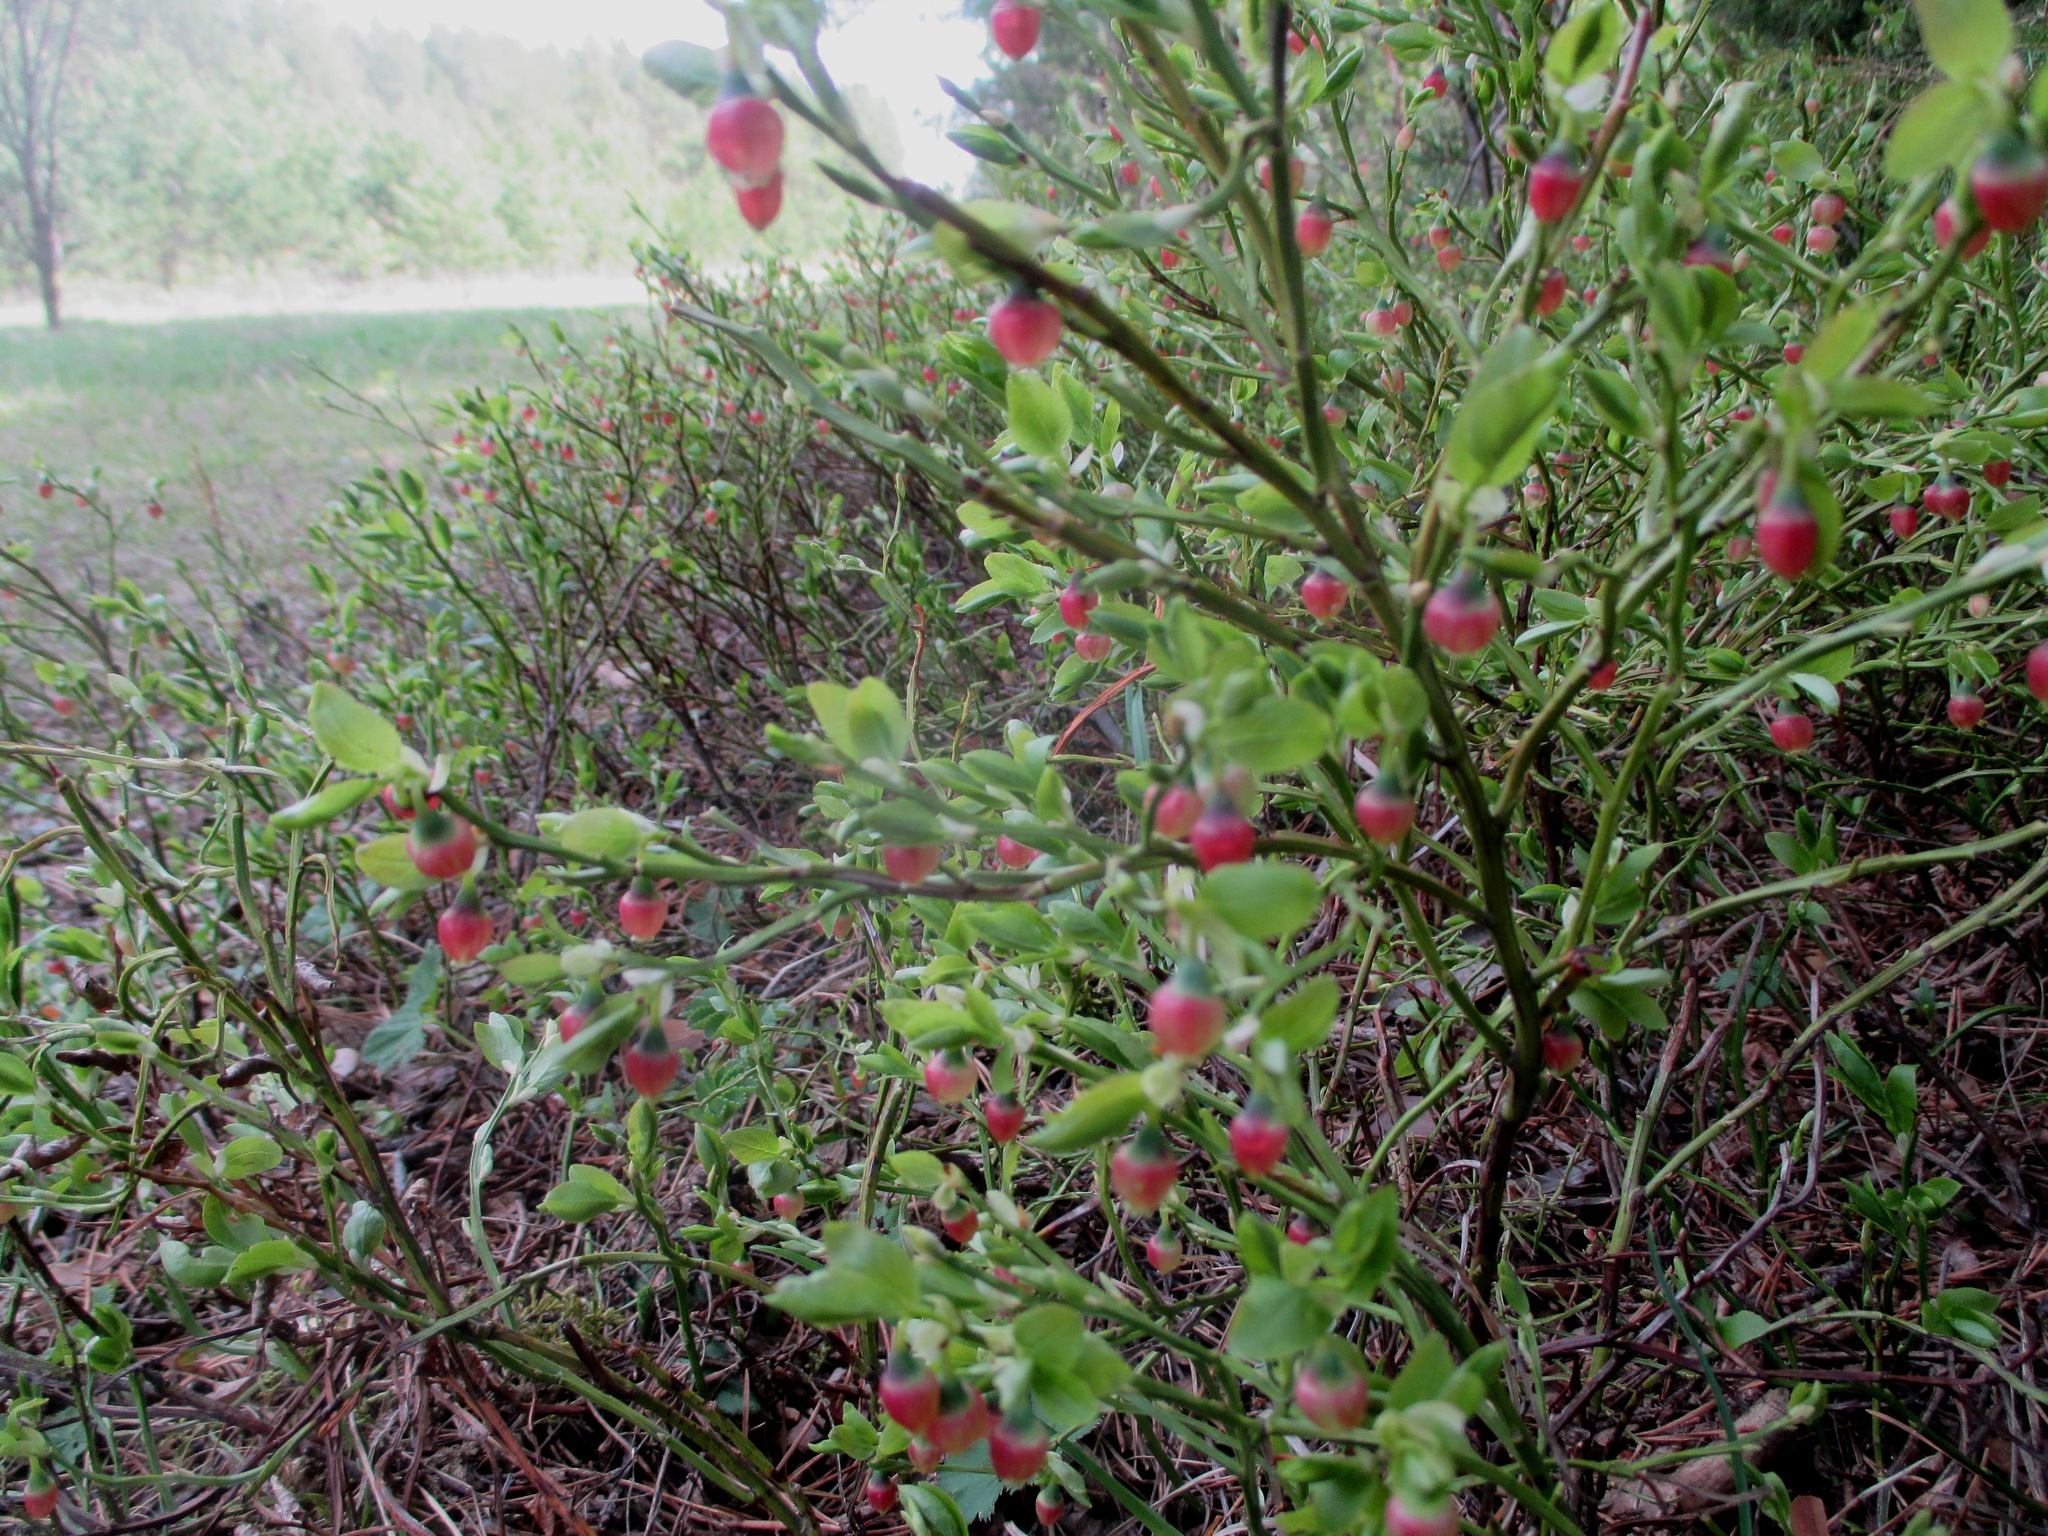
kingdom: Plantae
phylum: Tracheophyta
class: Magnoliopsida
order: Ericales
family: Ericaceae
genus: Vaccinium
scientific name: Vaccinium myrtillus
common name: Bilberry
